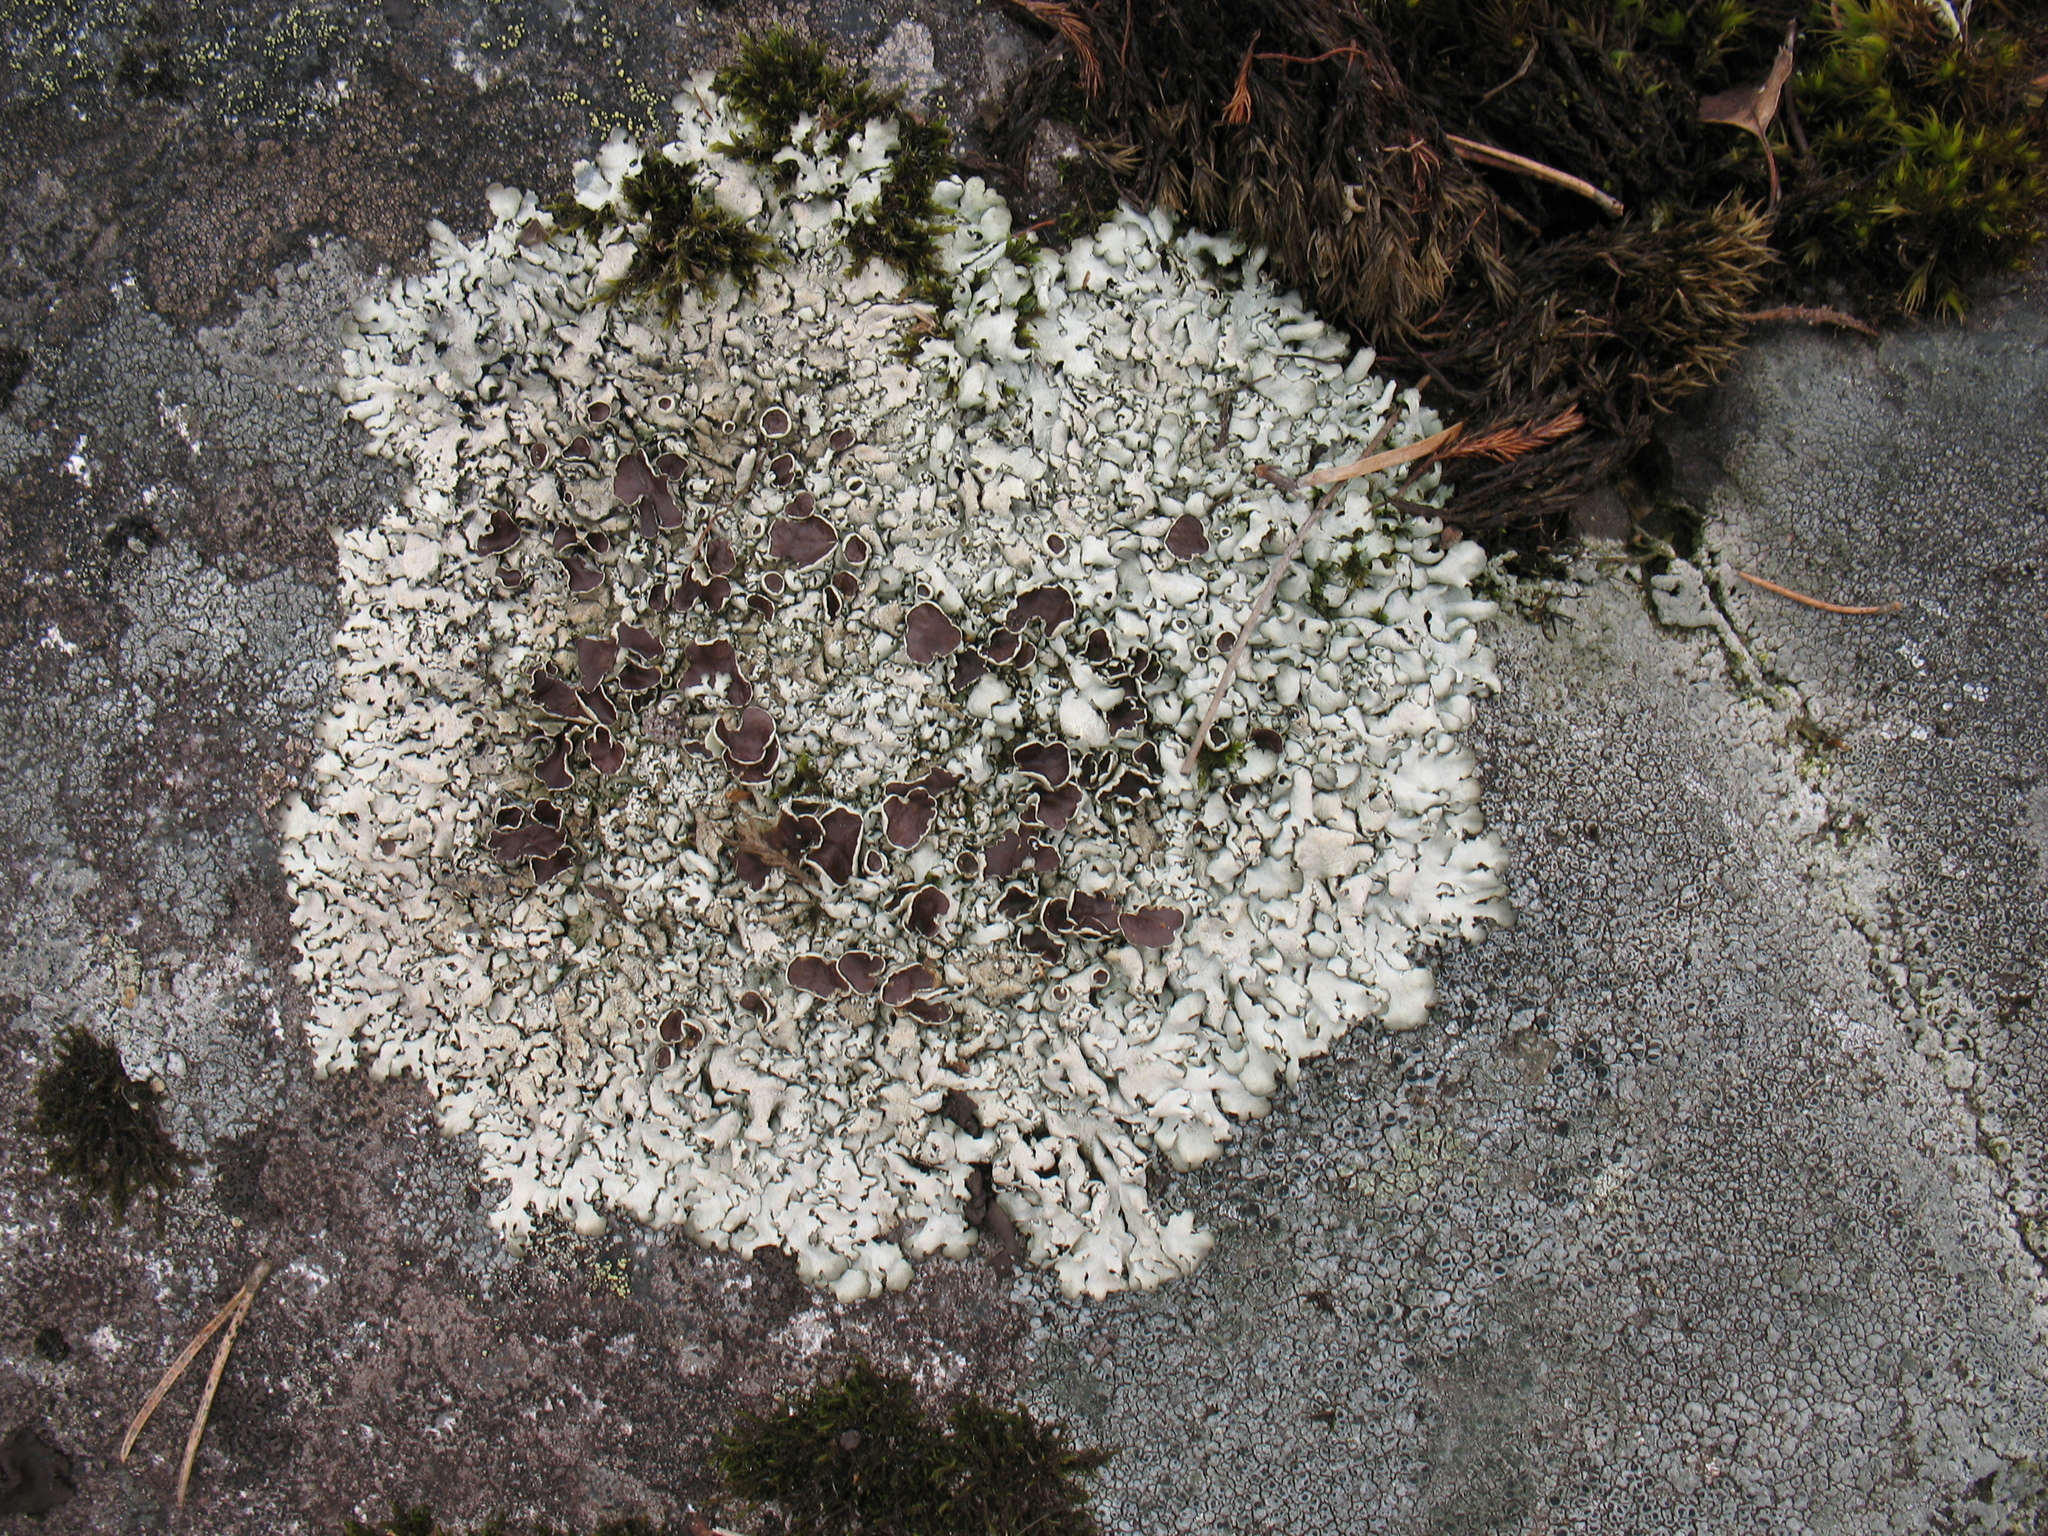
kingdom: Fungi
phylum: Ascomycota
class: Lecanoromycetes
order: Lecanorales
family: Parmeliaceae
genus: Xanthoparmelia
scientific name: Xanthoparmelia conspersa
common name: Peppered rock shield
